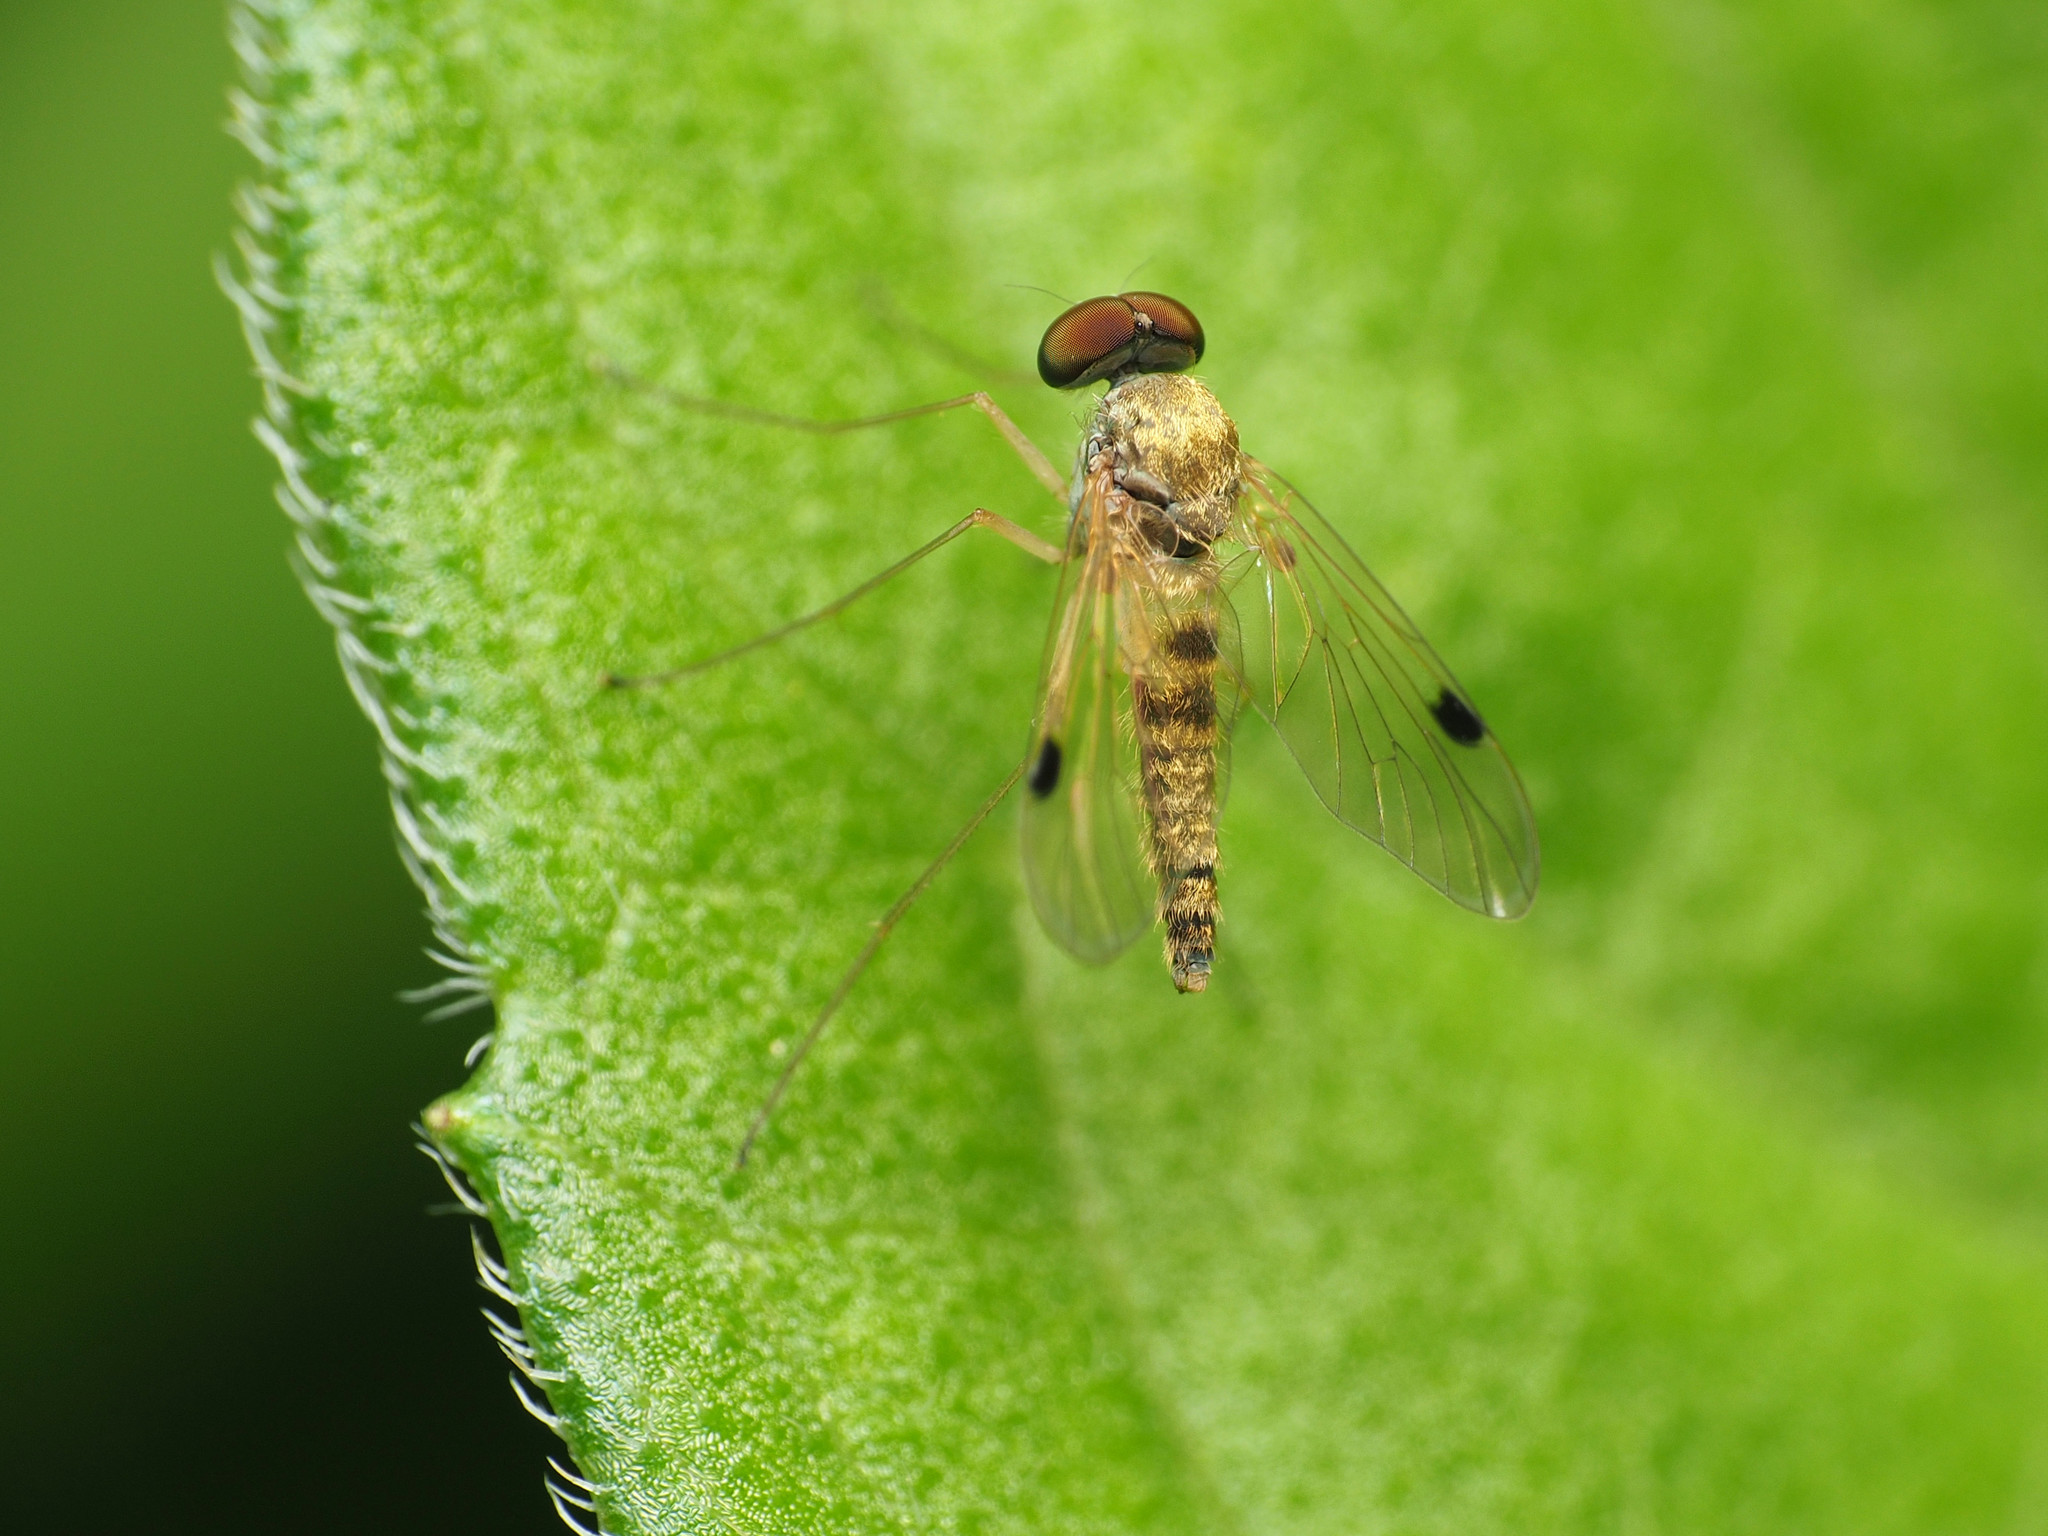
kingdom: Animalia
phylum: Arthropoda
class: Insecta
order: Diptera
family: Rhagionidae
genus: Chrysopilus
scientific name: Chrysopilus modestus
